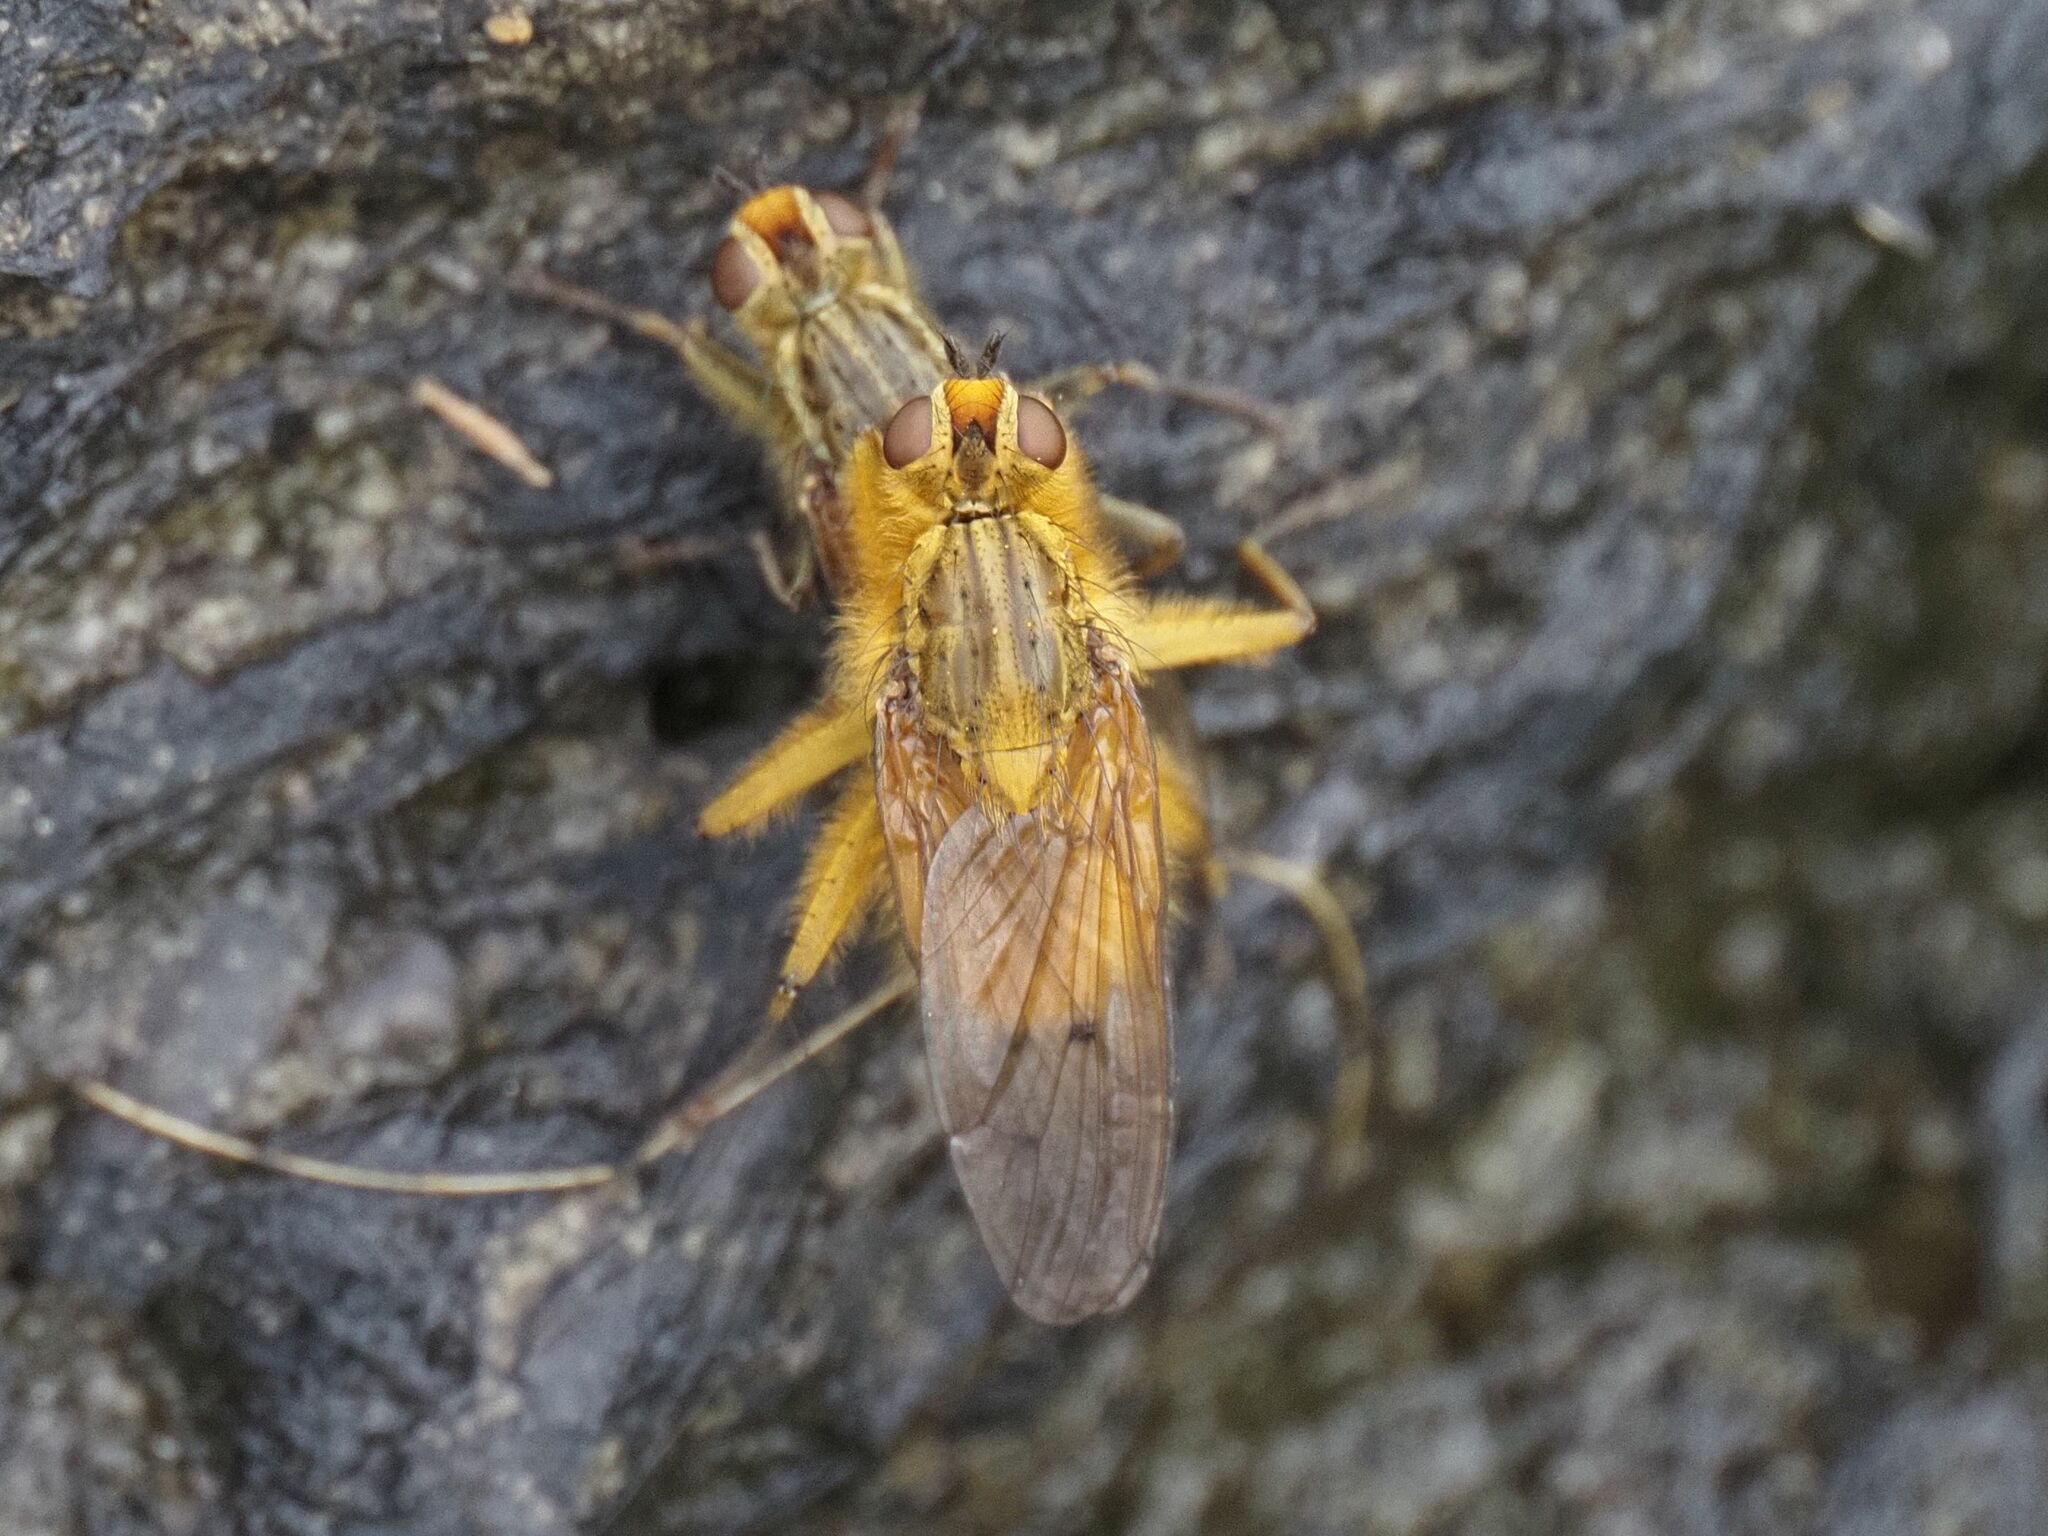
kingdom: Animalia
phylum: Arthropoda
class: Insecta
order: Diptera
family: Scathophagidae
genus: Scathophaga
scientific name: Scathophaga stercoraria
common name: Yellow dung fly
